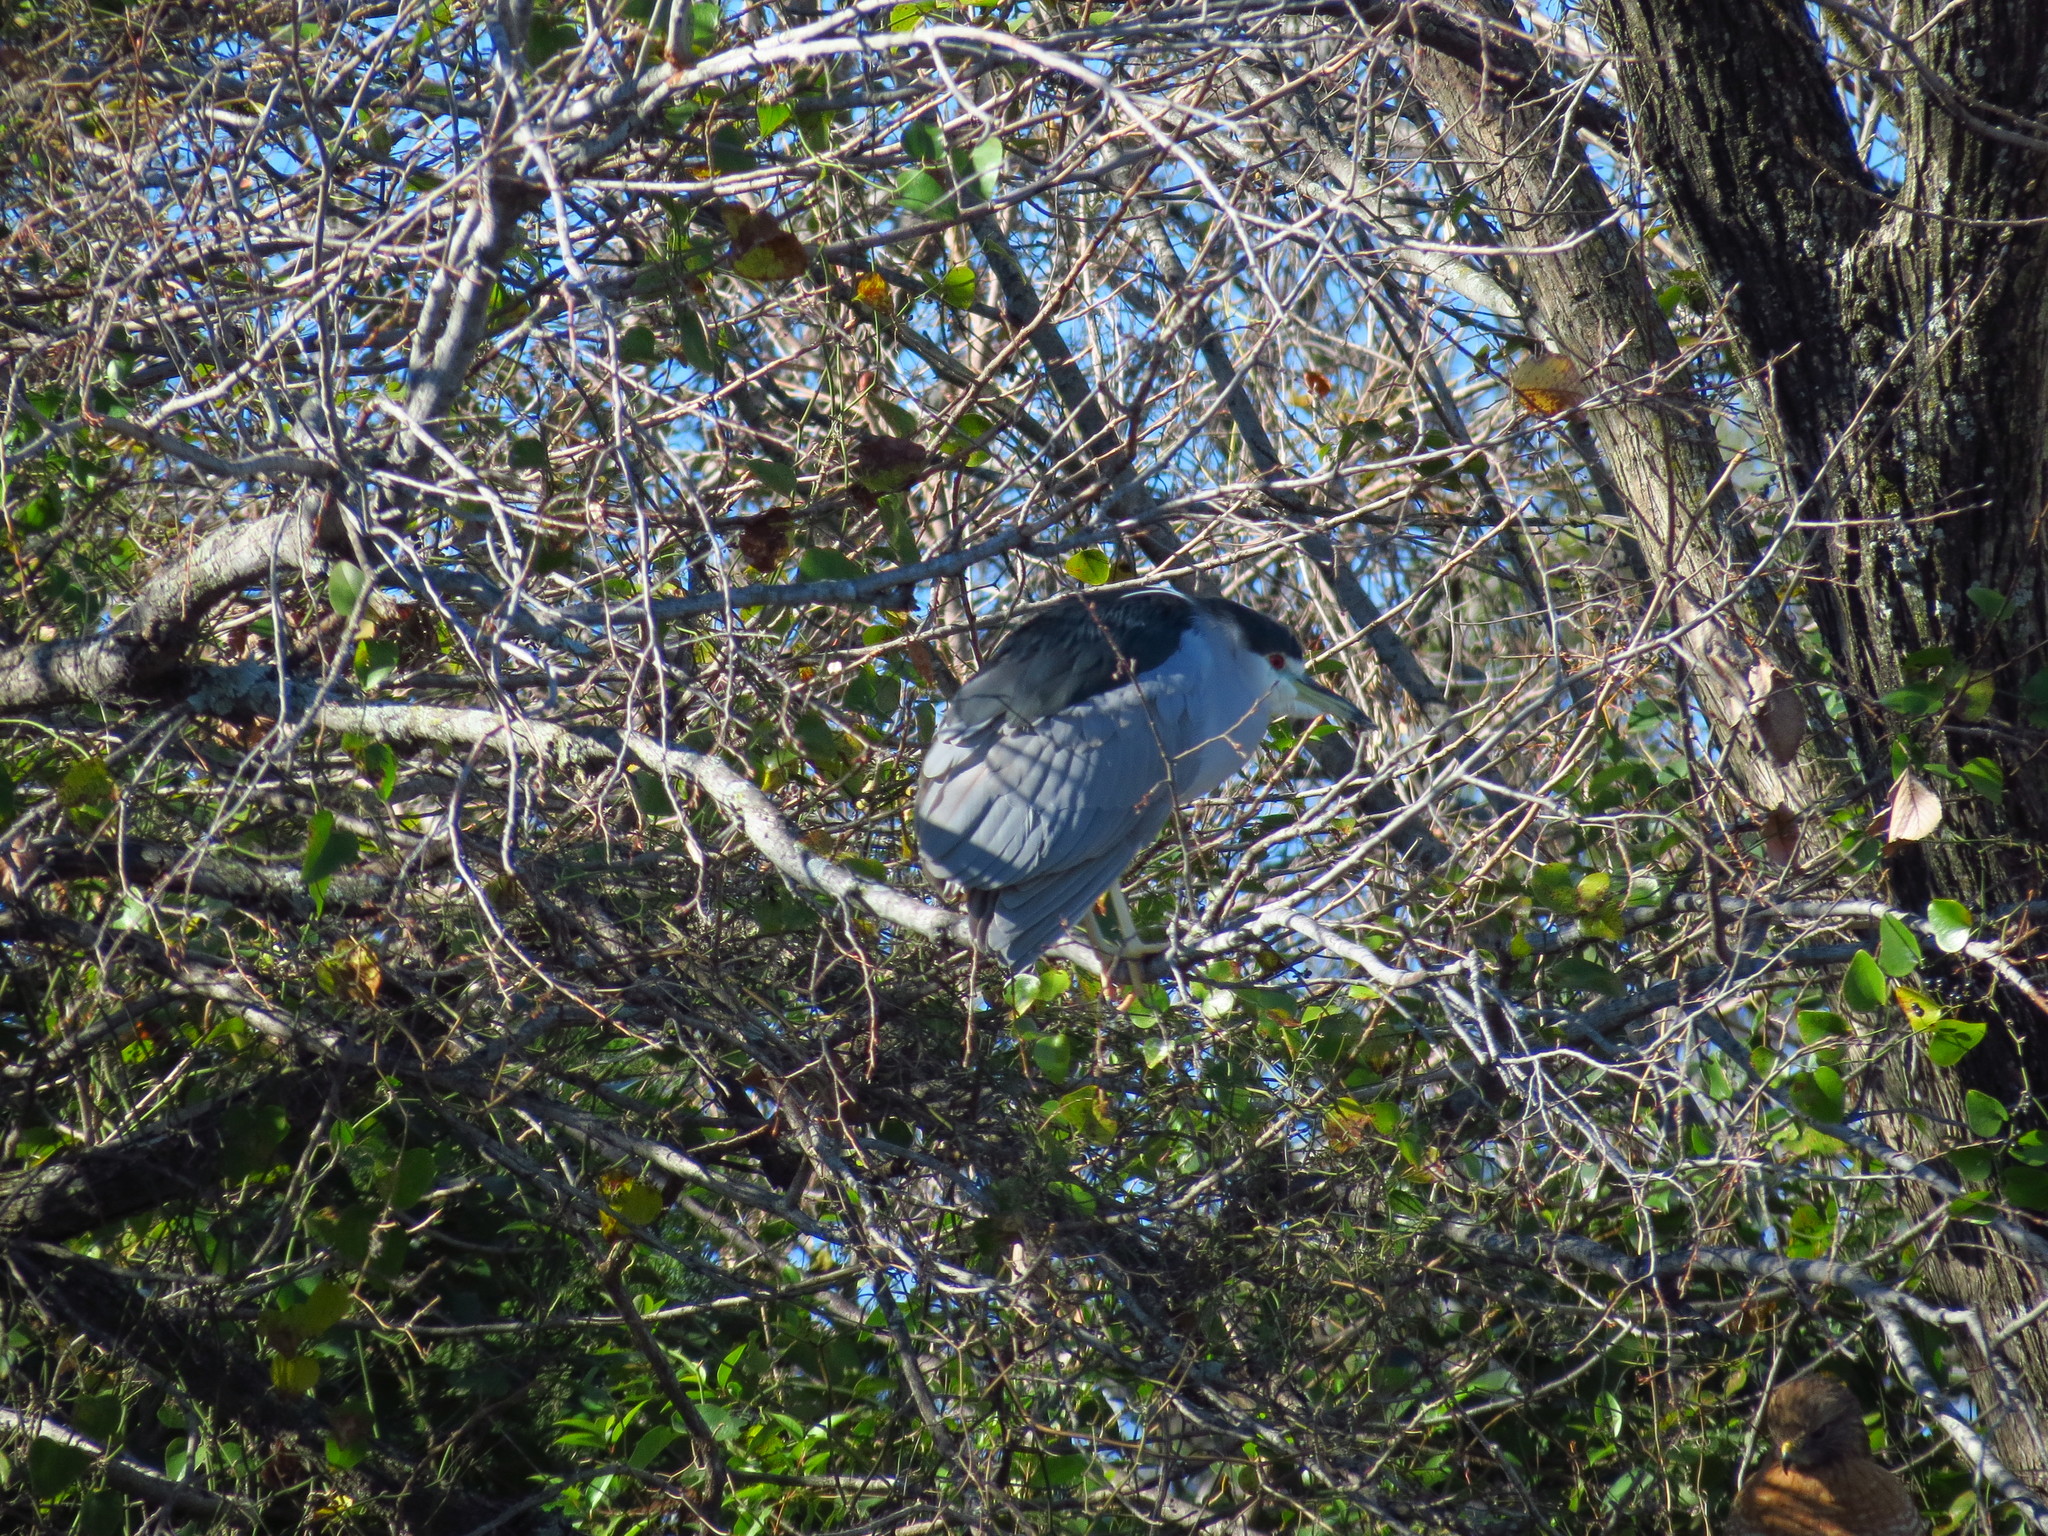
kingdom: Animalia
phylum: Chordata
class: Aves
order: Pelecaniformes
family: Ardeidae
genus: Nycticorax
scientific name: Nycticorax nycticorax
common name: Black-crowned night heron
